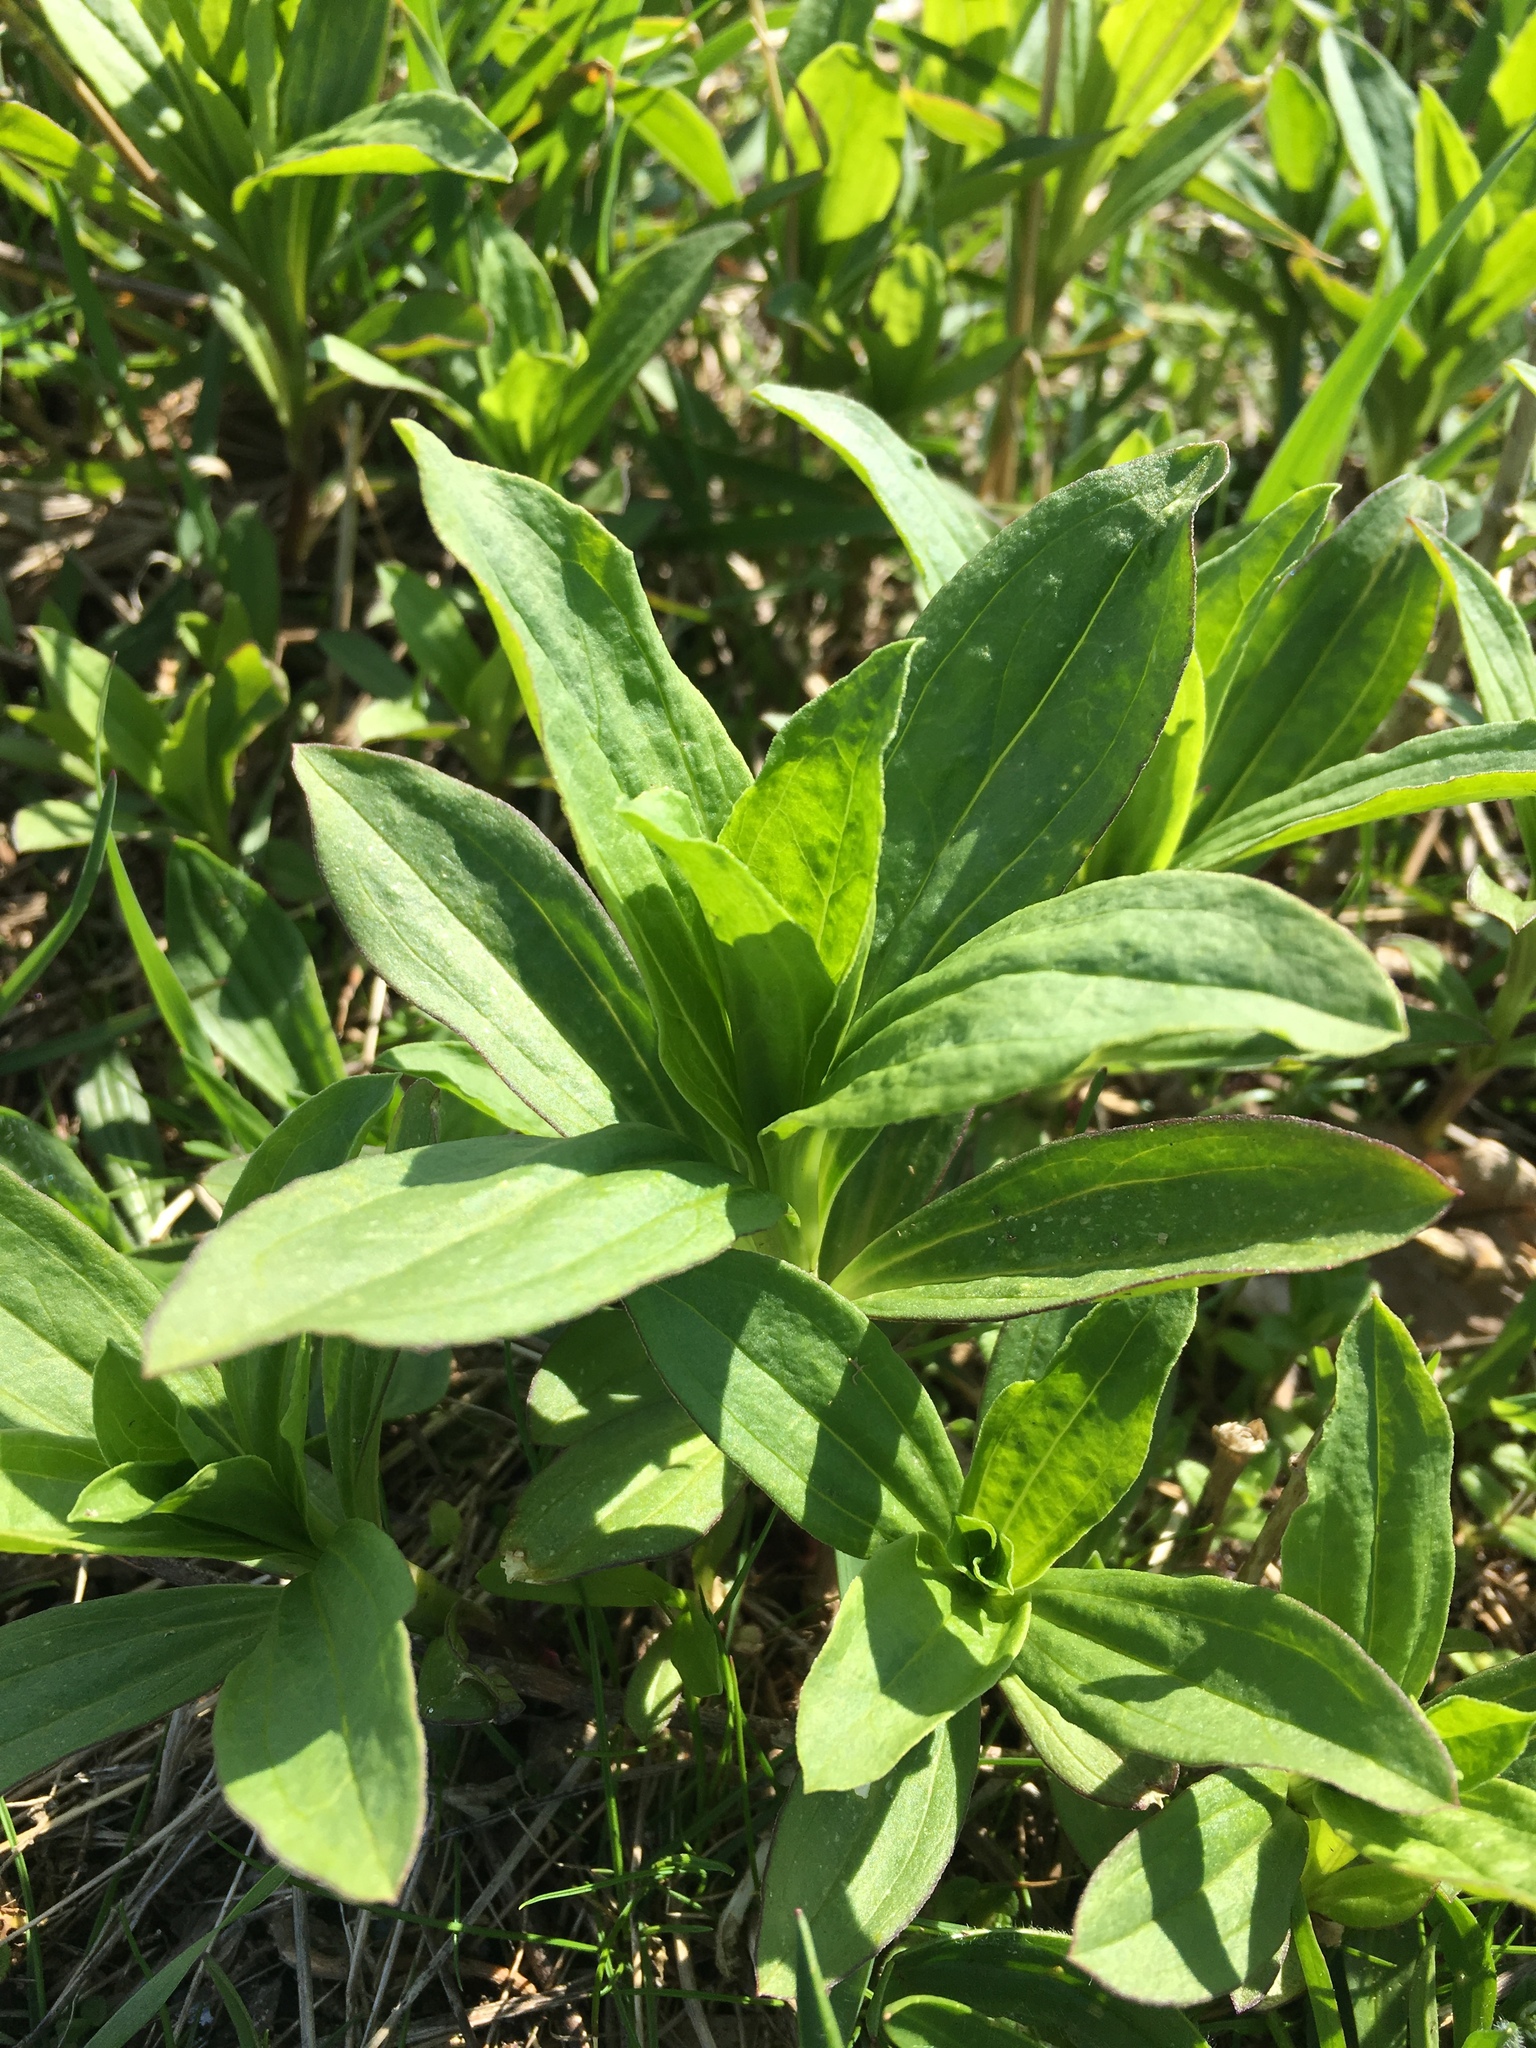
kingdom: Plantae
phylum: Tracheophyta
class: Magnoliopsida
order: Caryophyllales
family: Caryophyllaceae
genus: Saponaria
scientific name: Saponaria officinalis
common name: Soapwort
